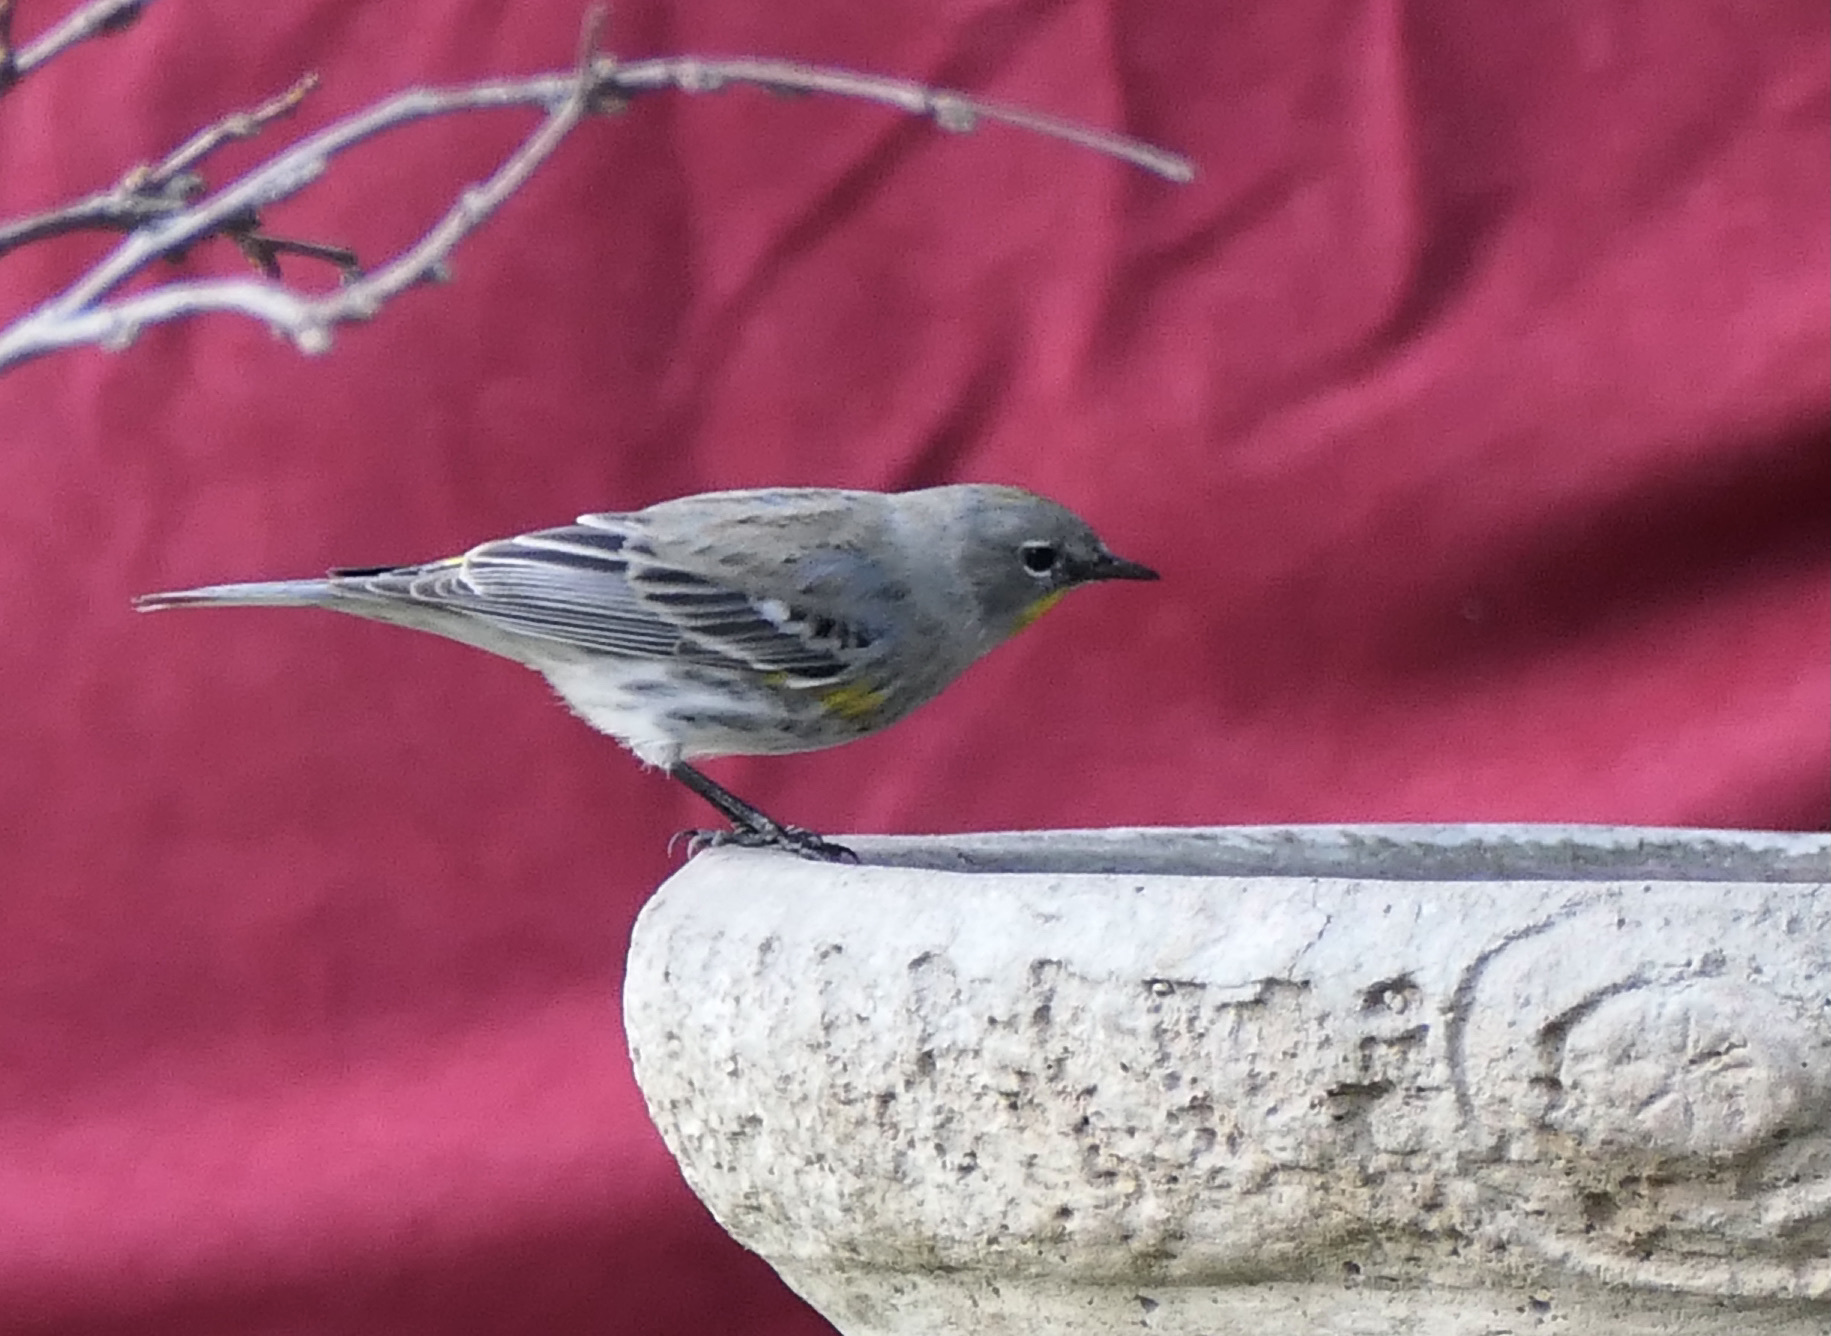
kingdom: Animalia
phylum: Chordata
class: Aves
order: Passeriformes
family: Parulidae
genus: Setophaga
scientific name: Setophaga coronata
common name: Myrtle warbler
